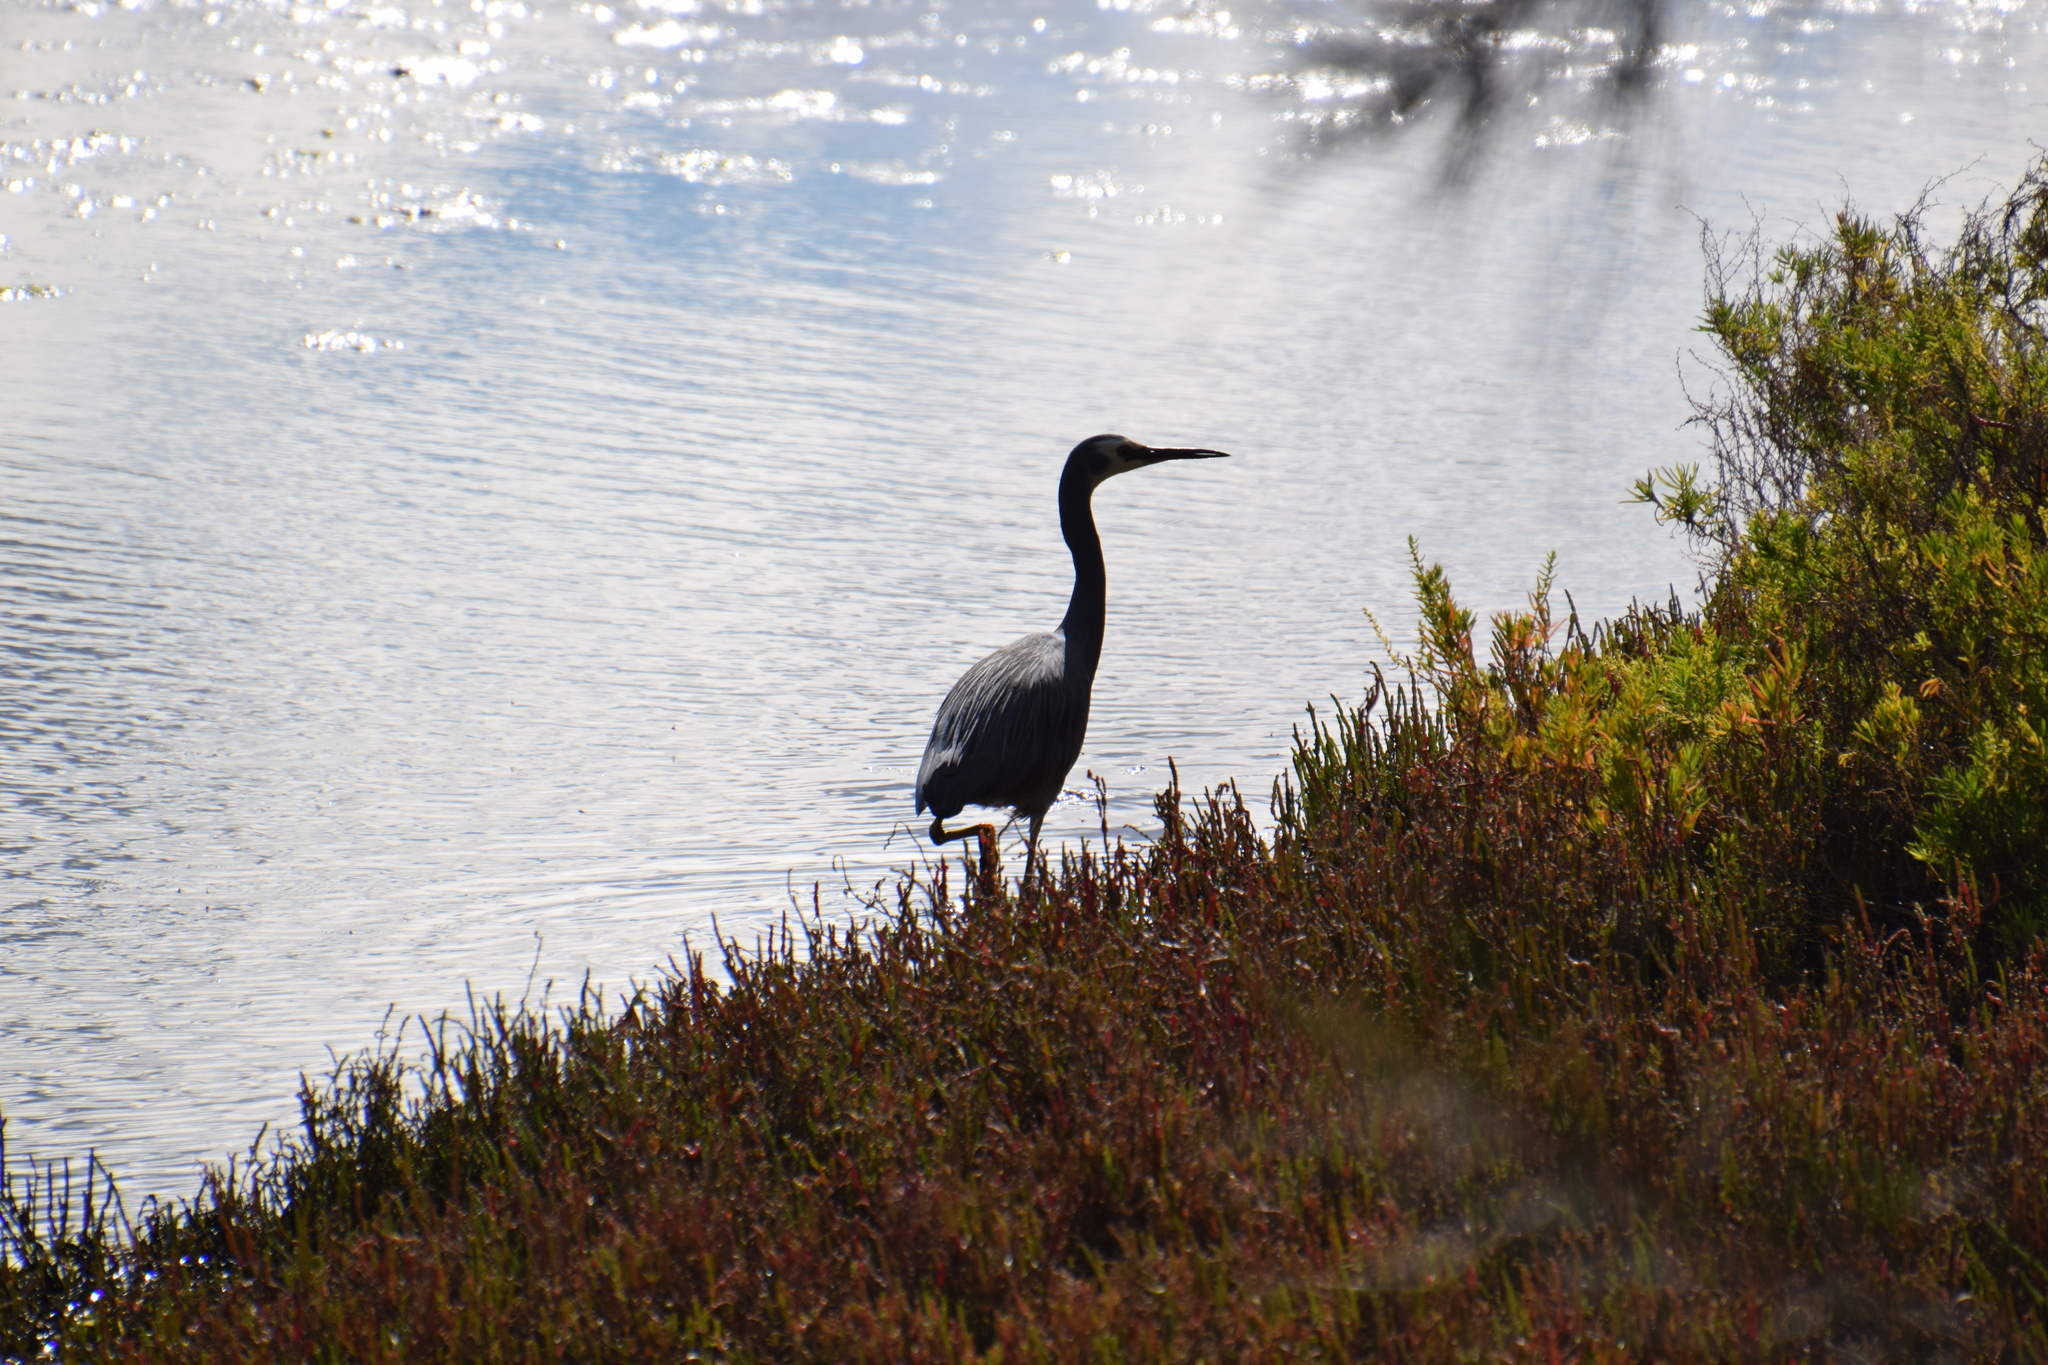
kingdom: Animalia
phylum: Chordata
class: Aves
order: Pelecaniformes
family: Ardeidae
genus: Egretta
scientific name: Egretta novaehollandiae
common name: White-faced heron
